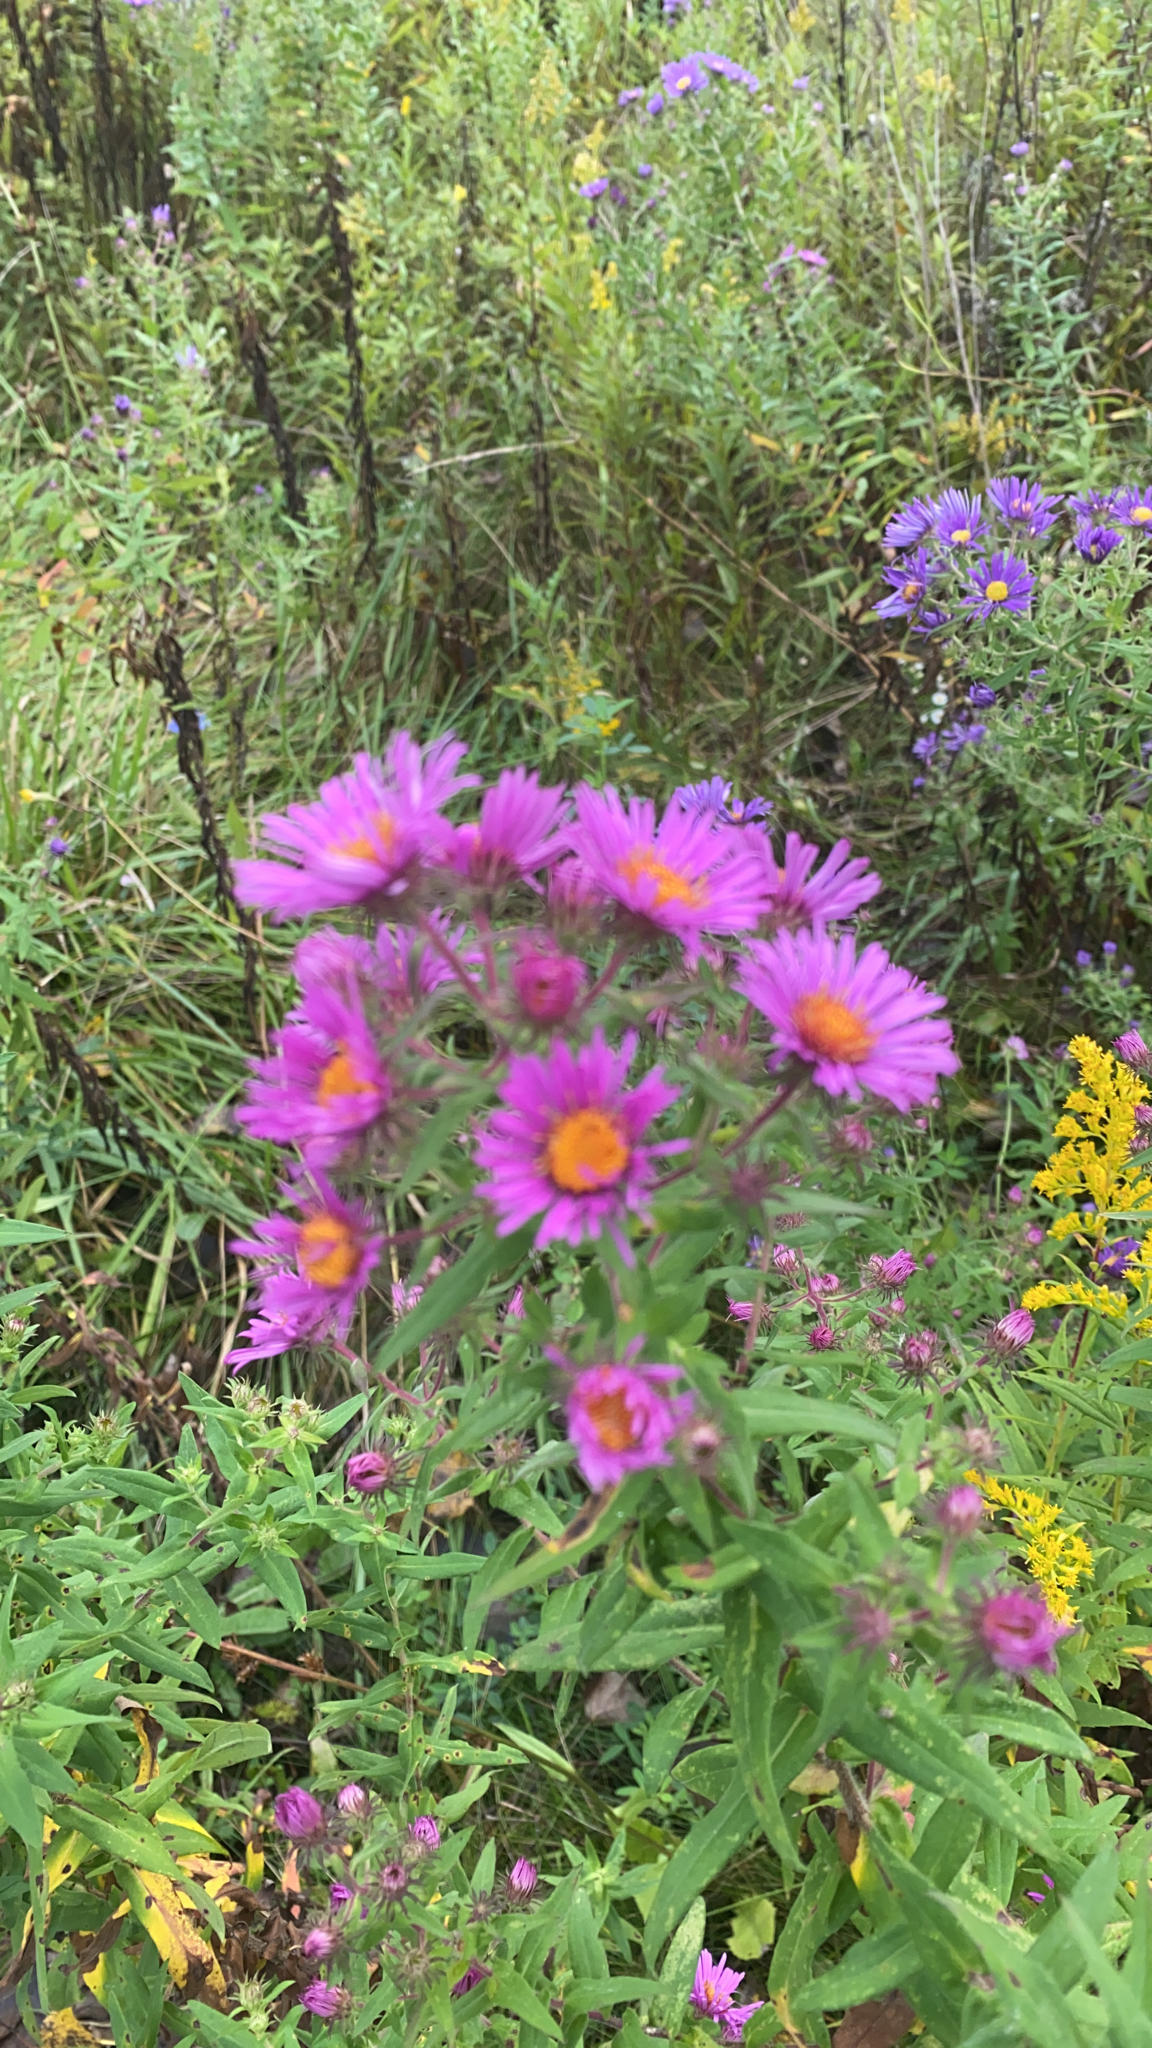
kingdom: Plantae
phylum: Tracheophyta
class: Magnoliopsida
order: Asterales
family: Asteraceae
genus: Symphyotrichum
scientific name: Symphyotrichum novae-angliae
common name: Michaelmas daisy
